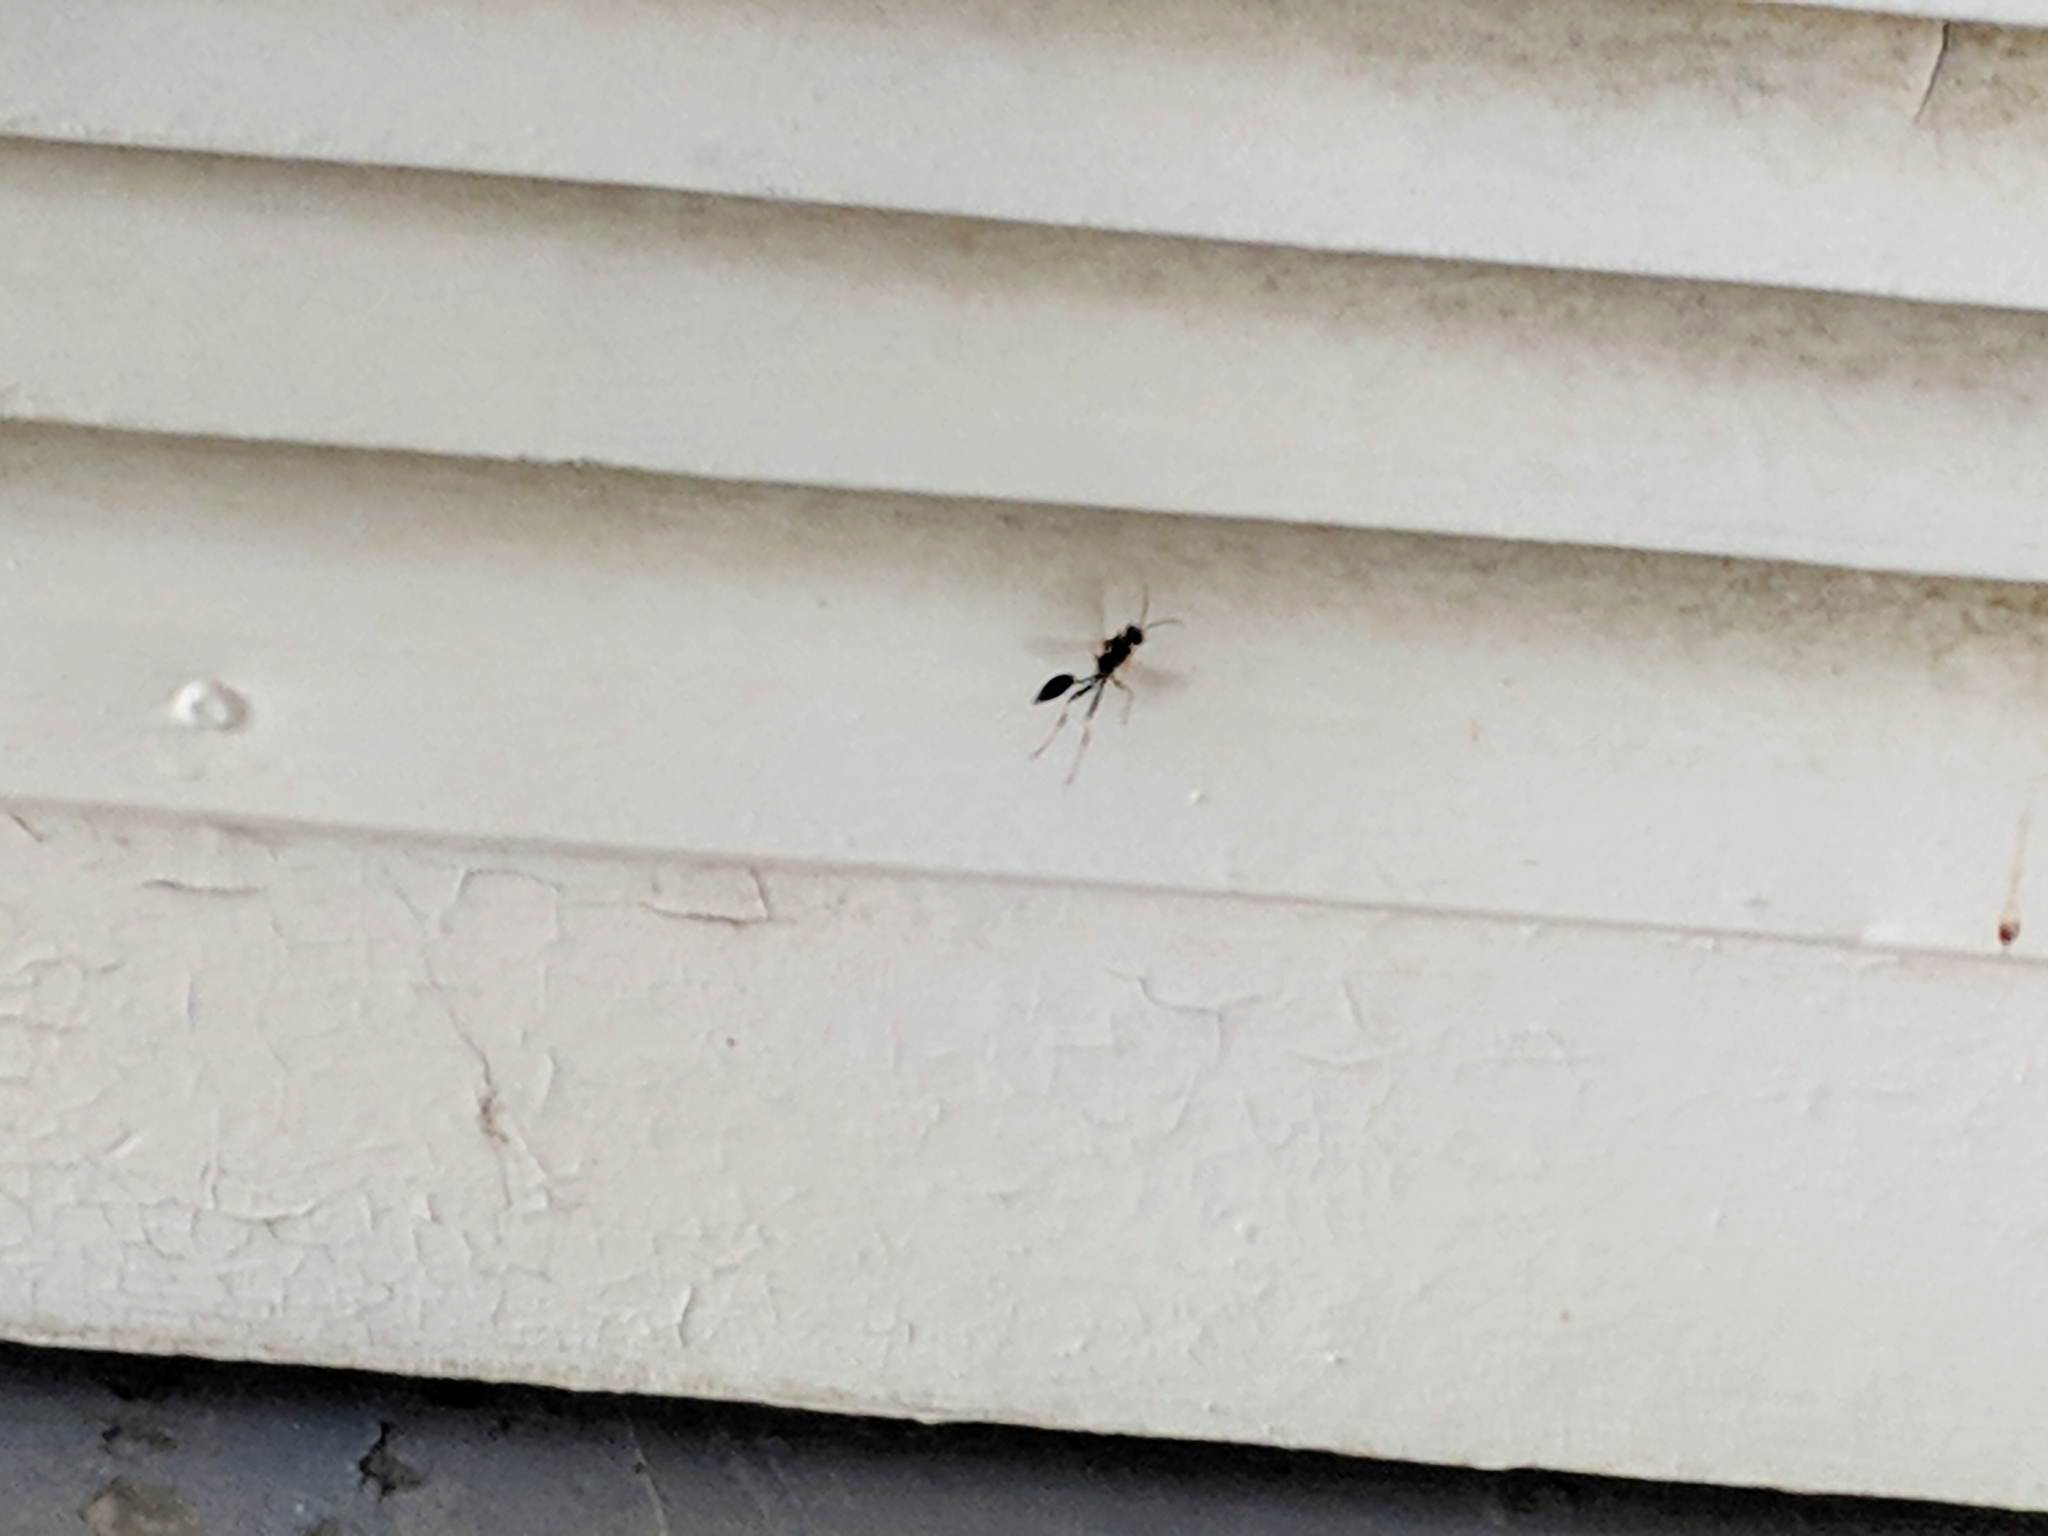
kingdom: Animalia
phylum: Arthropoda
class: Insecta
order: Hymenoptera
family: Sphecidae
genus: Sceliphron
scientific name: Sceliphron caementarium
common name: Mud dauber
